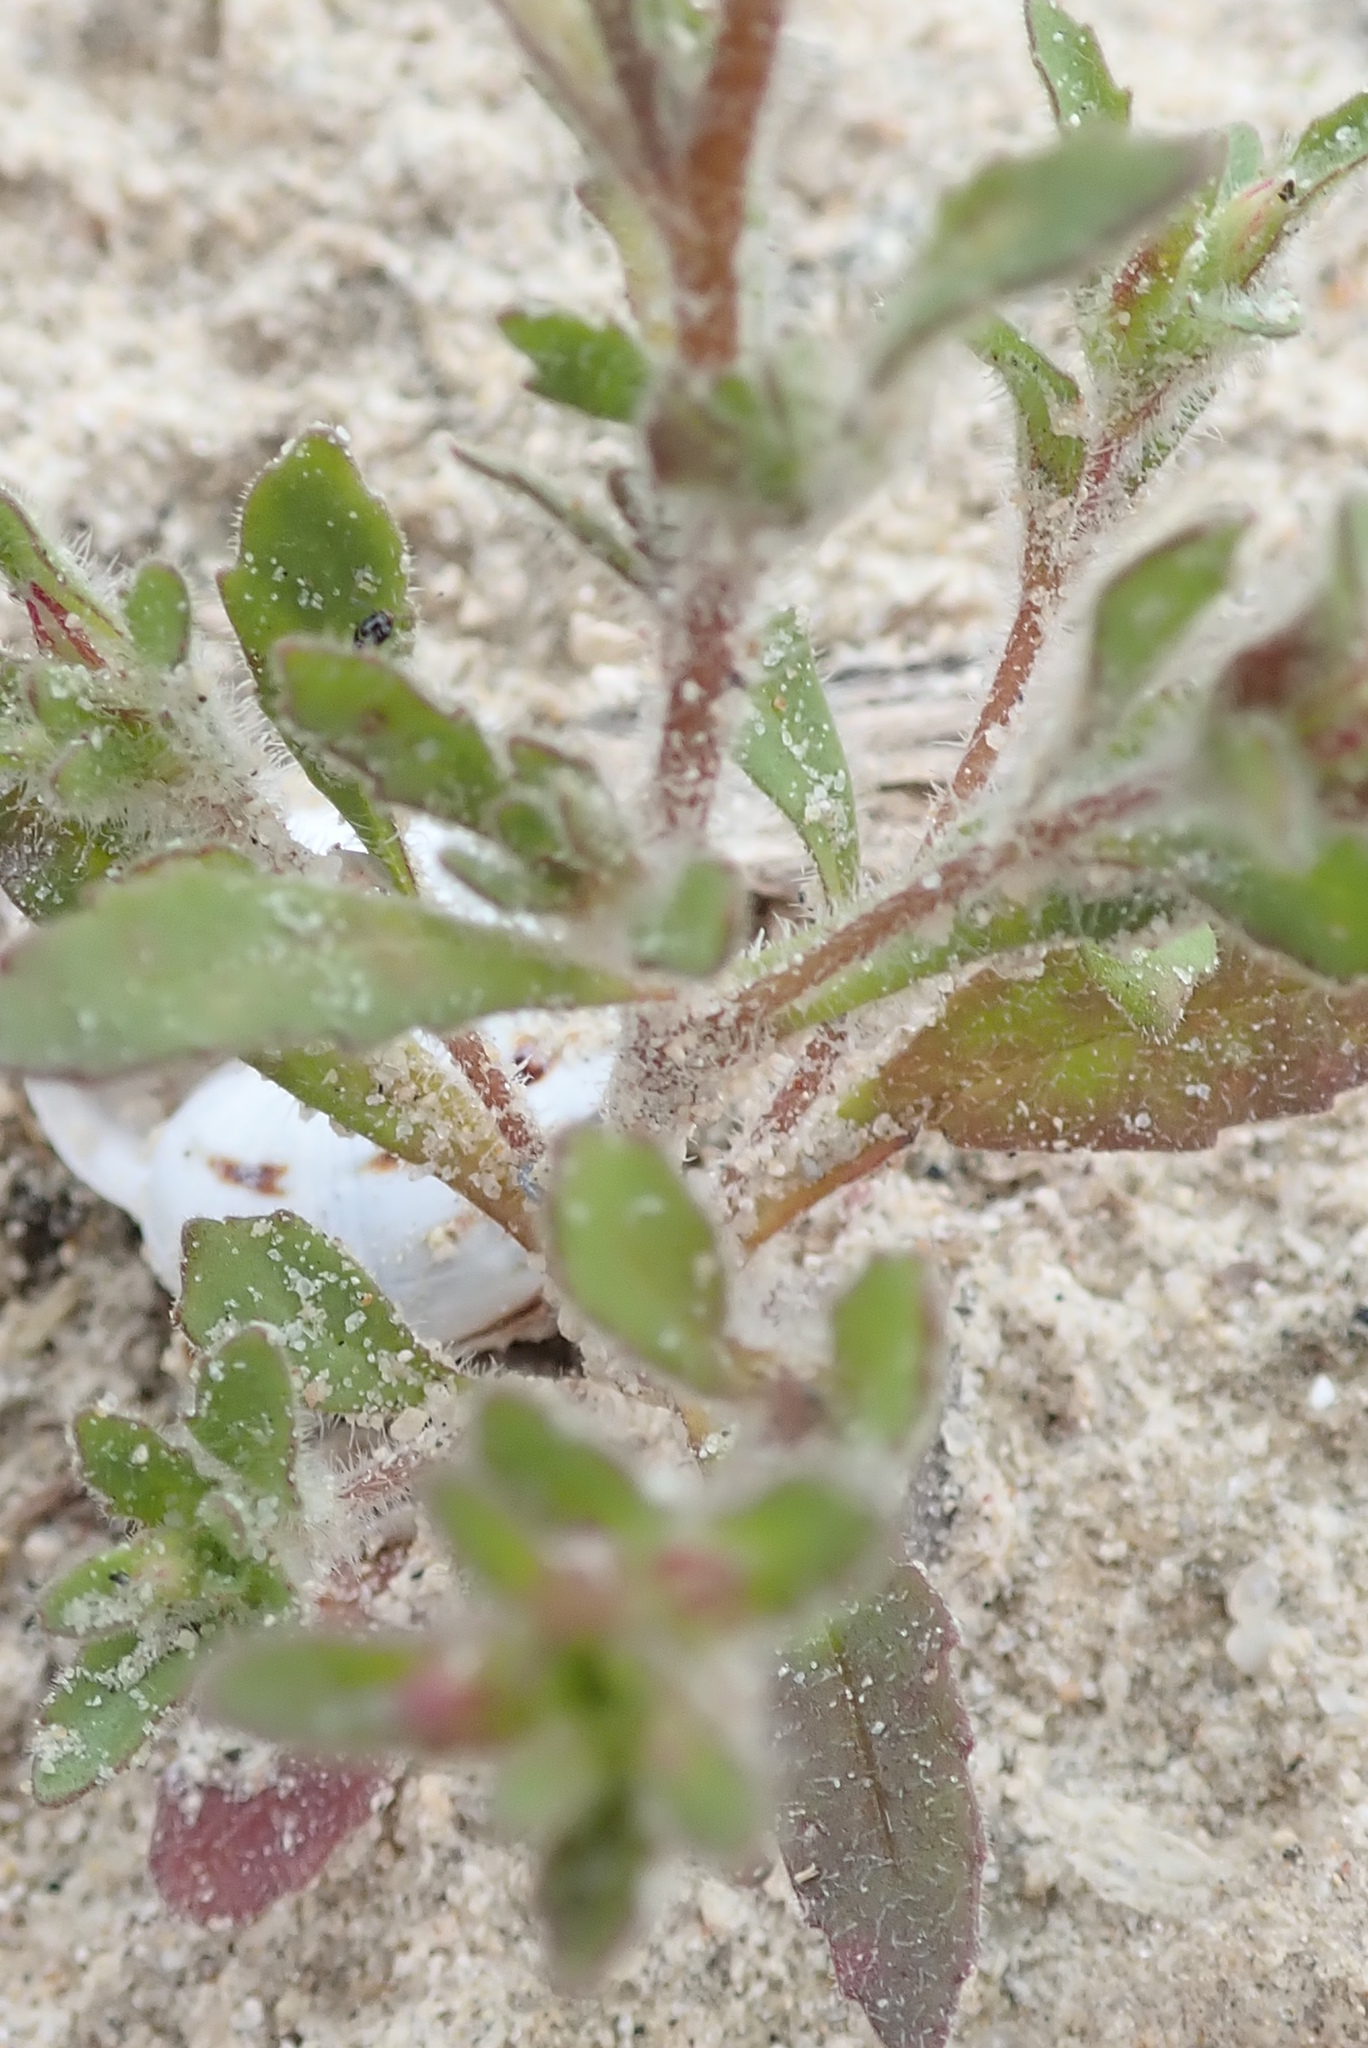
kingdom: Plantae
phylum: Tracheophyta
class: Magnoliopsida
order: Asterales
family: Asteraceae
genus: Dimorphotheca
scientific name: Dimorphotheca pluvialis
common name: Weather prophet
